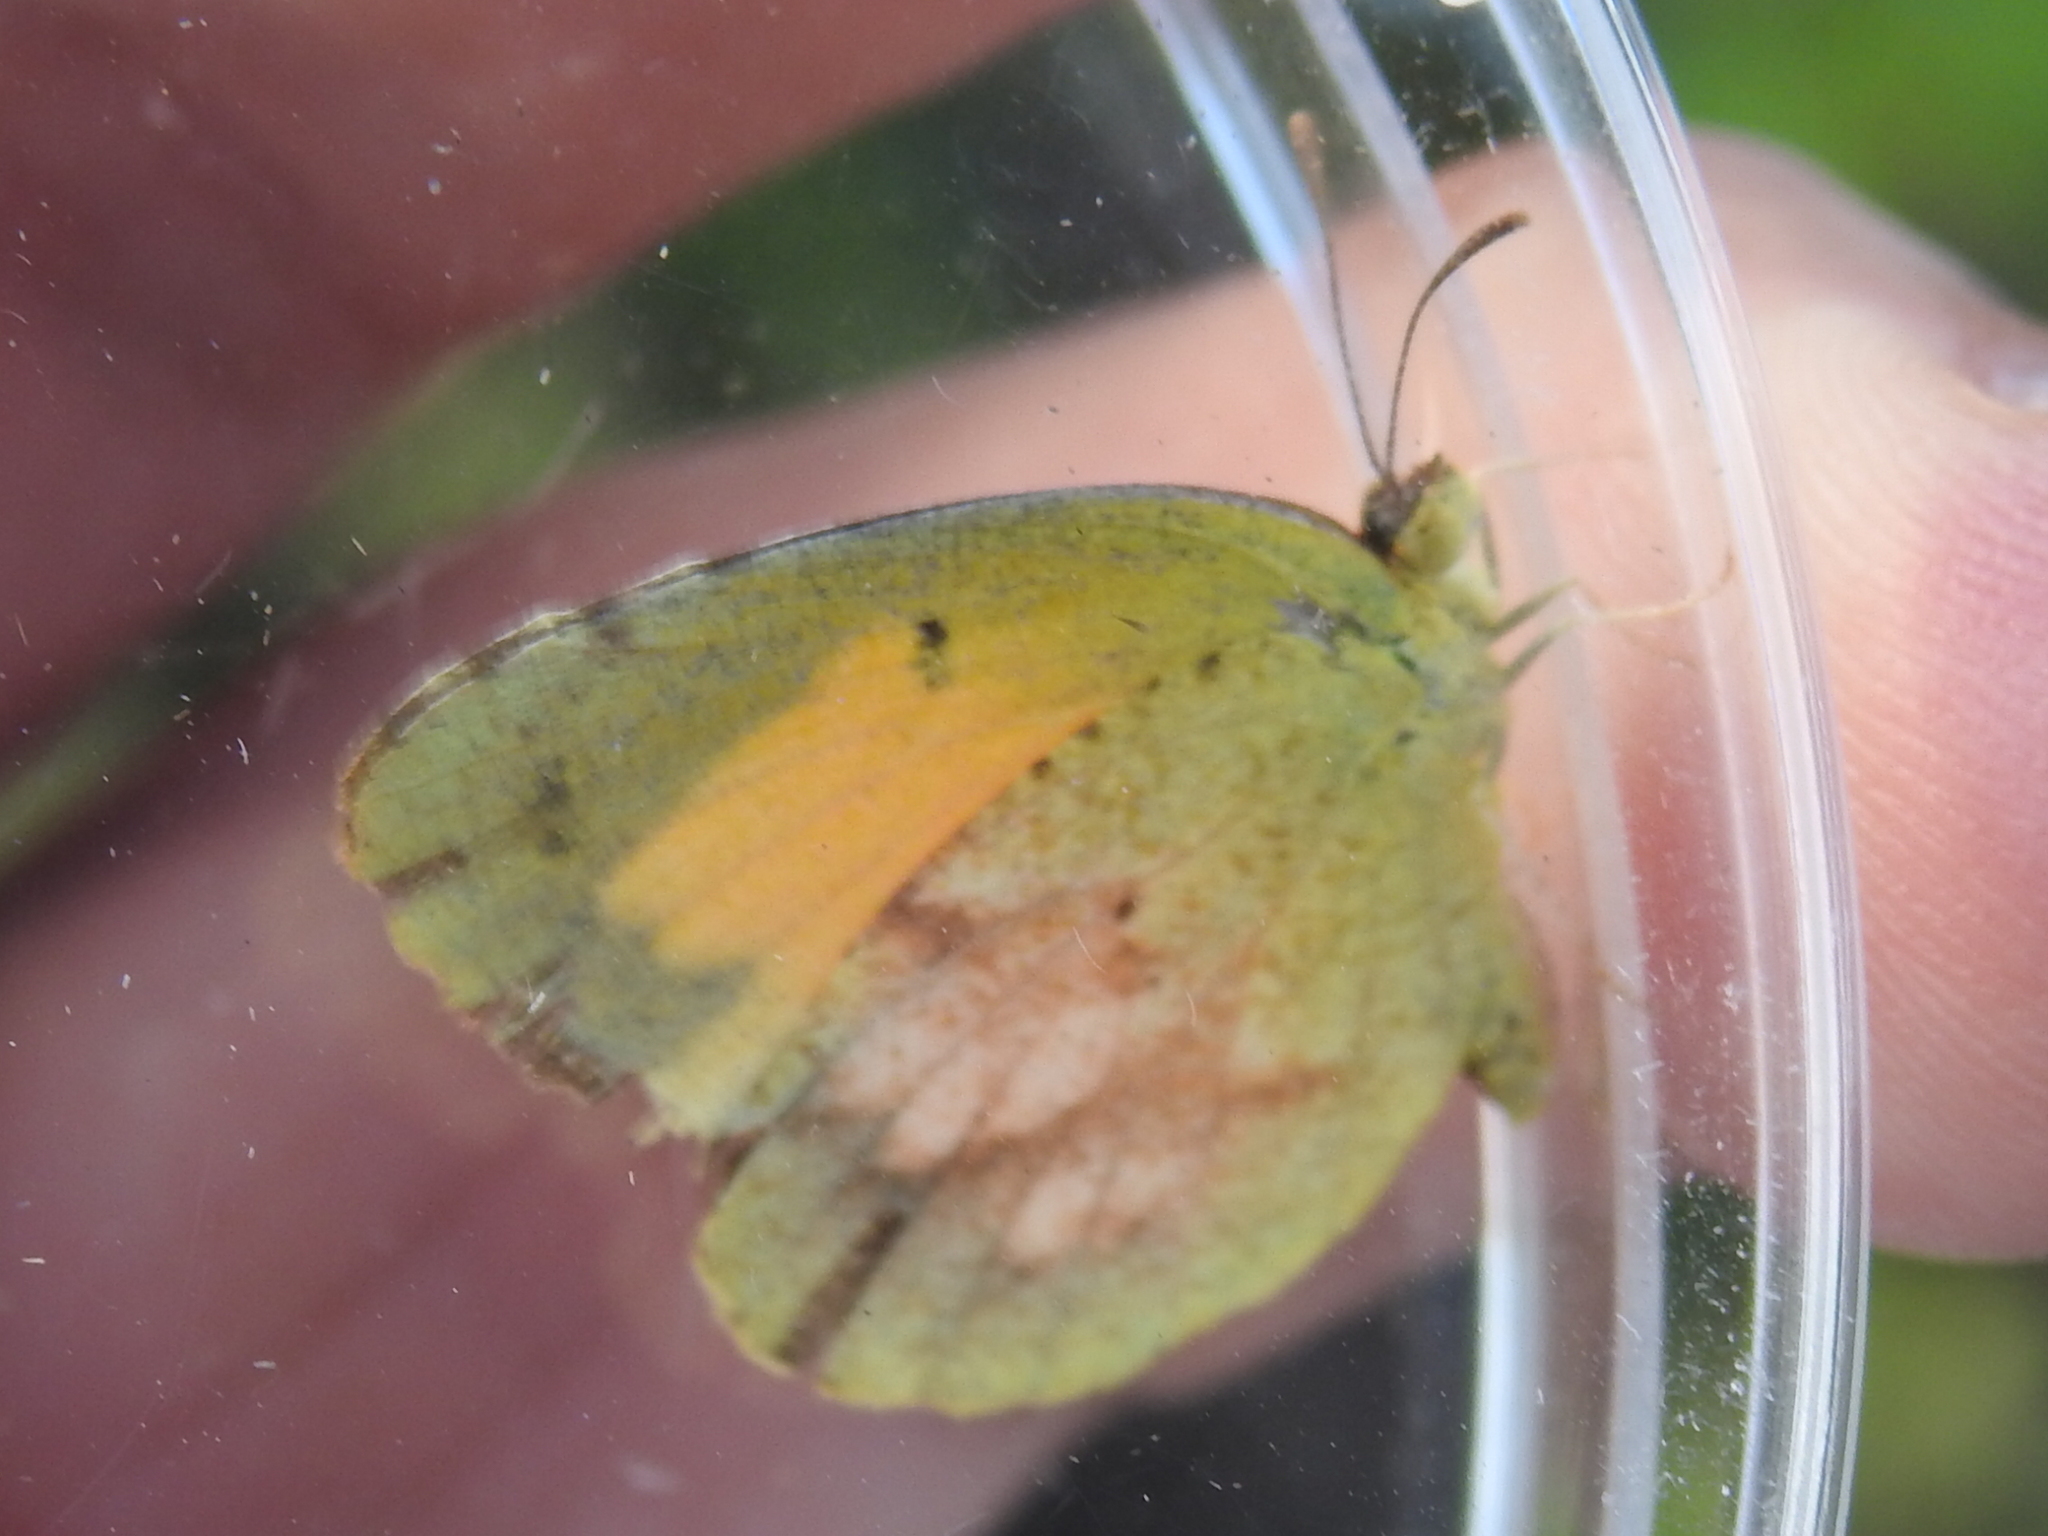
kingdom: Animalia
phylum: Arthropoda
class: Insecta
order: Lepidoptera
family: Pieridae
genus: Abaeis
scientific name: Abaeis nicippe
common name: Sleepy orange
